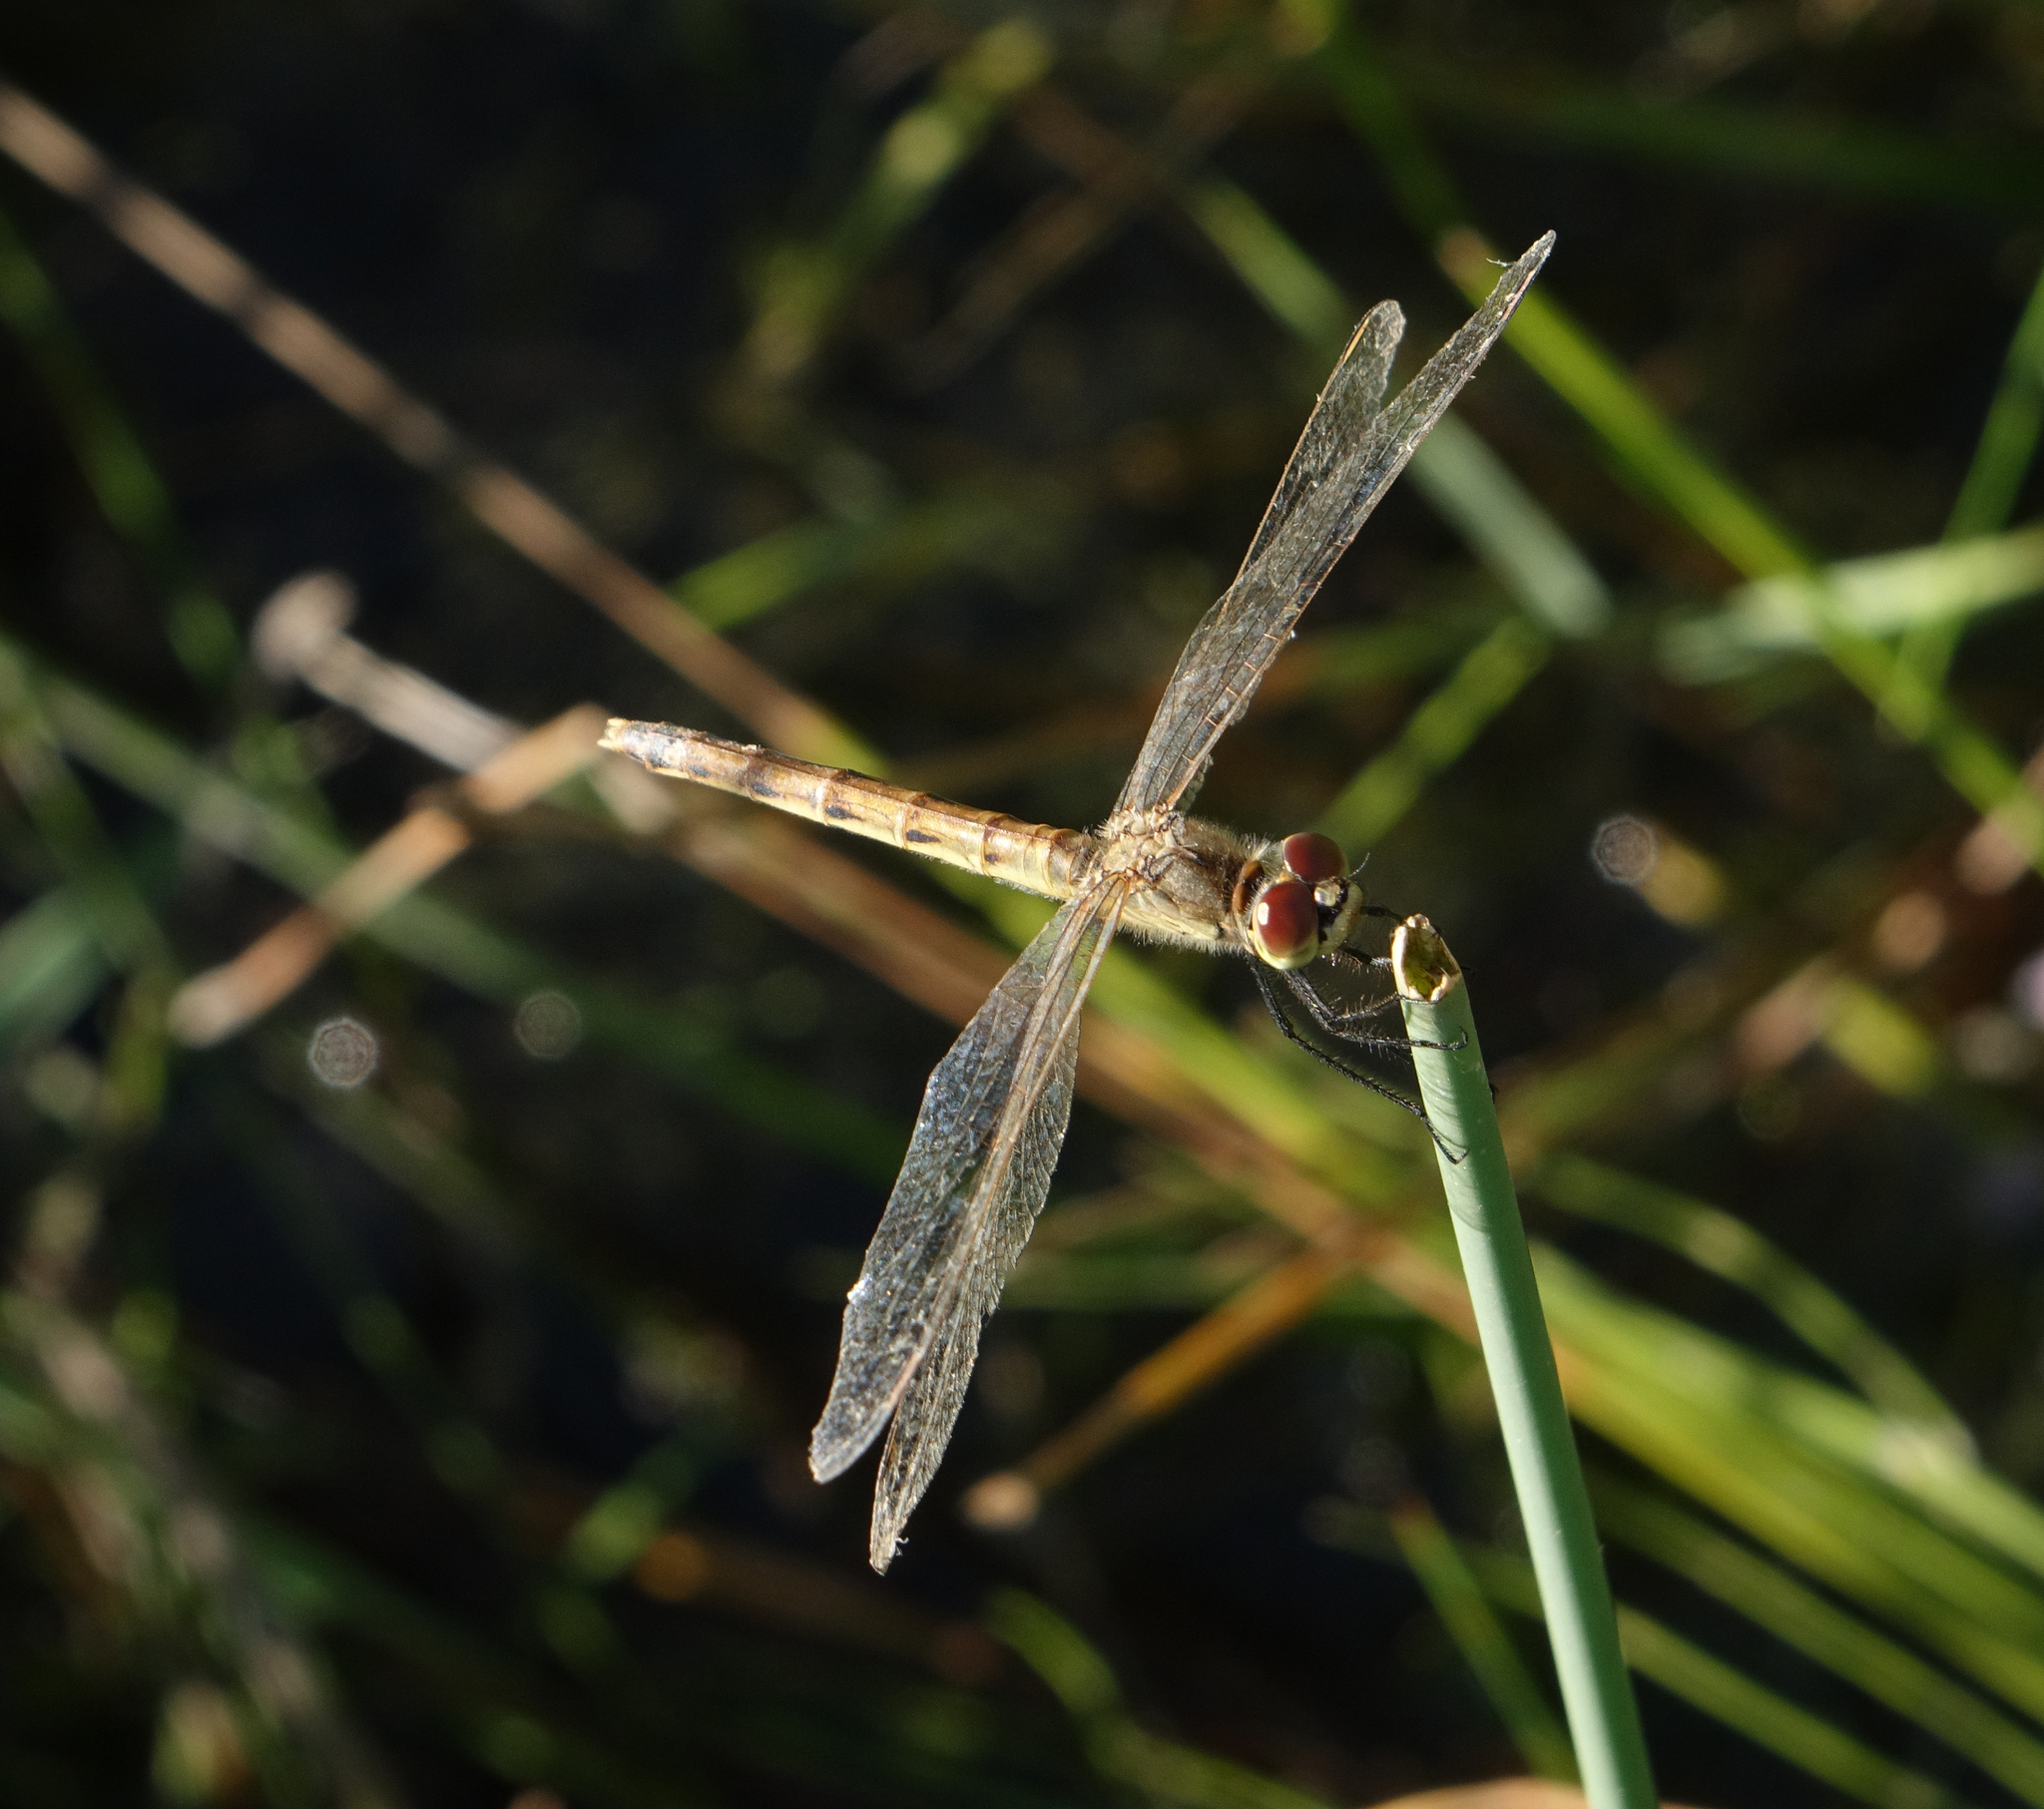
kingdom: Animalia
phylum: Arthropoda
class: Insecta
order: Odonata
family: Libellulidae
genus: Sympetrum
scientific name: Sympetrum depressiusculum
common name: Spotted darter
